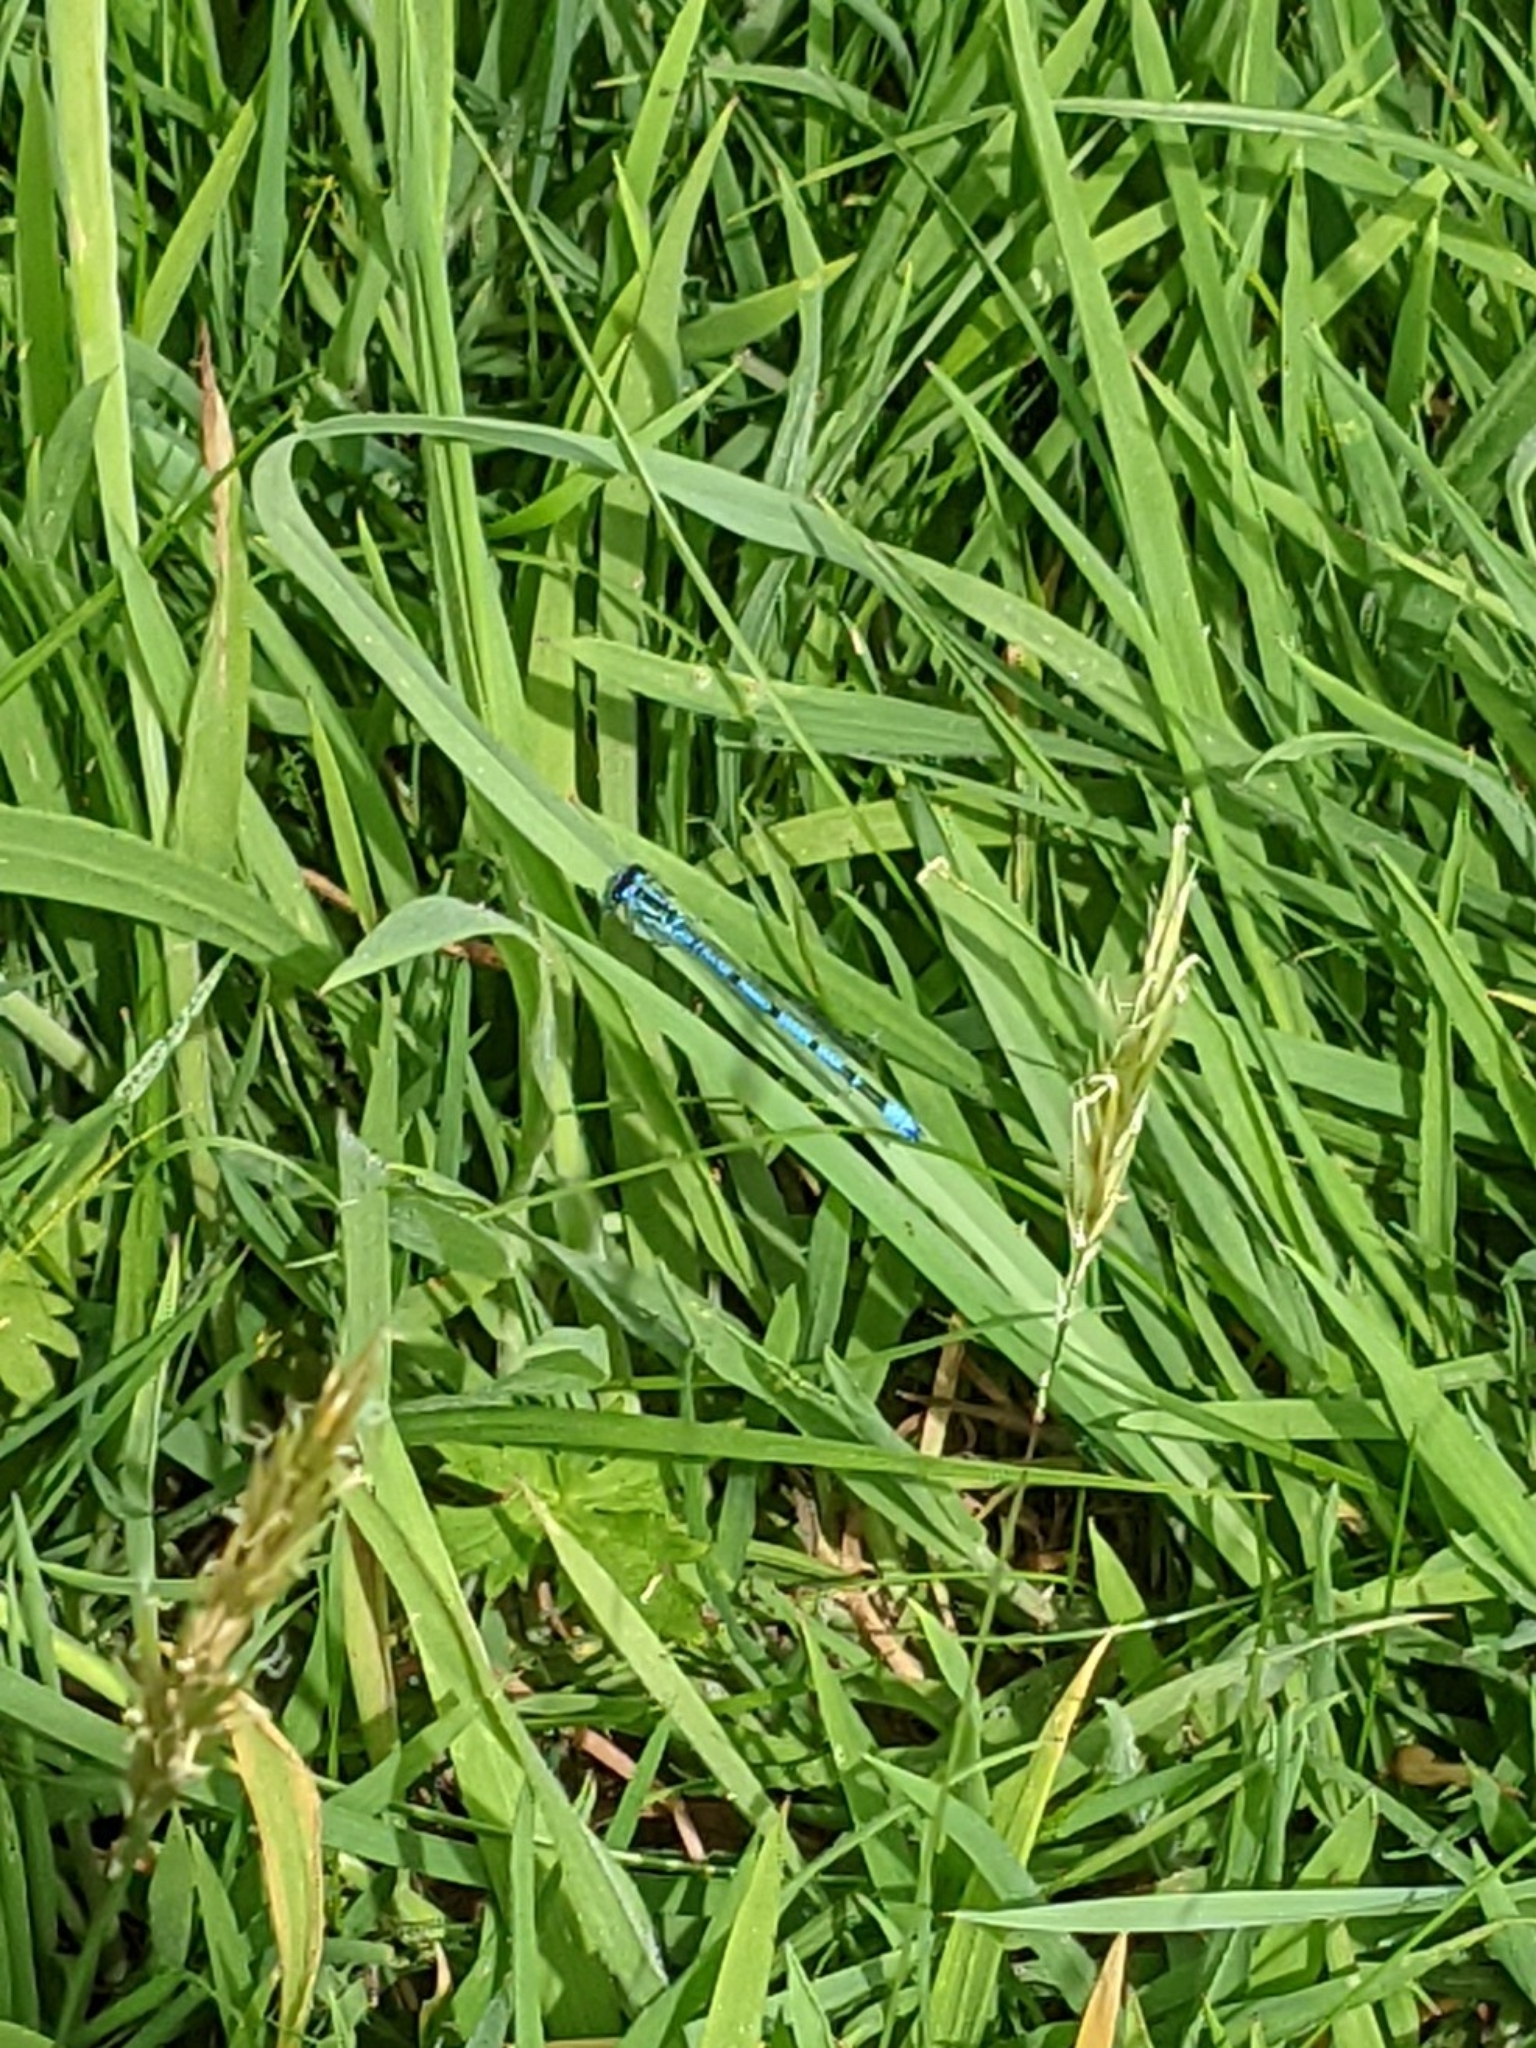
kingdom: Animalia
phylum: Arthropoda
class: Insecta
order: Odonata
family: Coenagrionidae
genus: Coenagrion
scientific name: Coenagrion puella
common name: Azure damselfly
